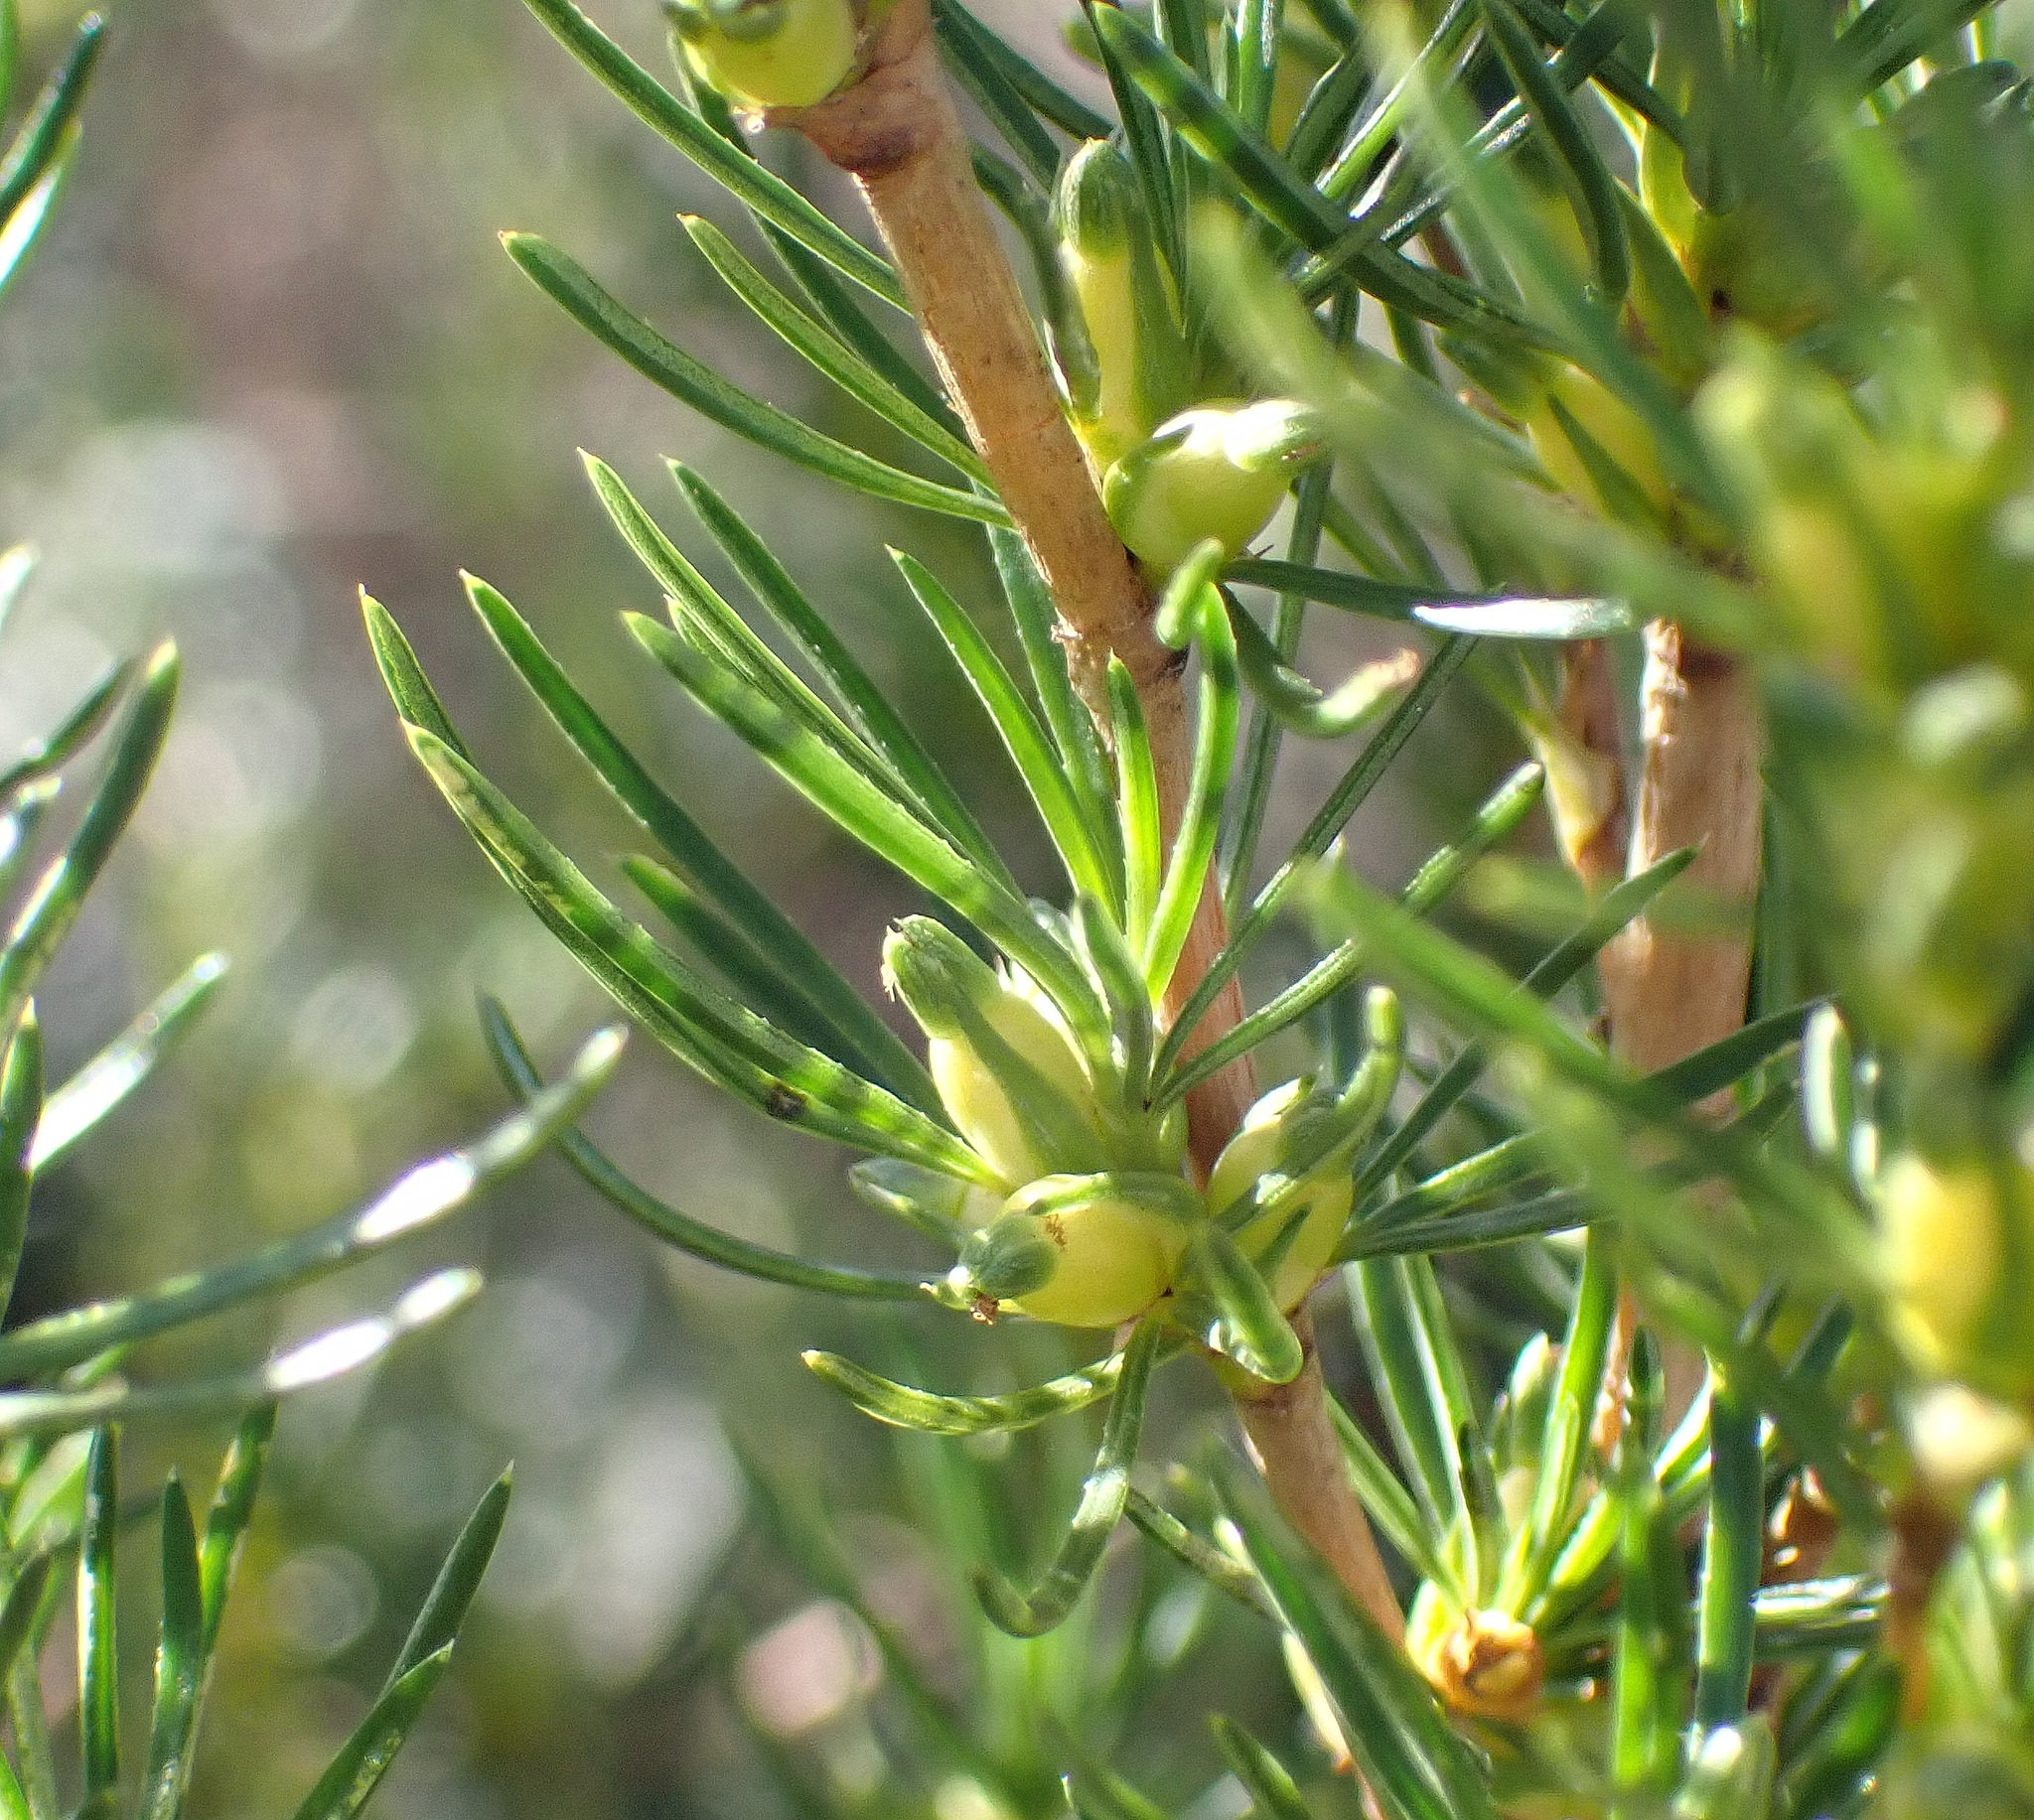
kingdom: Plantae
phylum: Tracheophyta
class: Magnoliopsida
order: Rosales
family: Rosaceae
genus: Cliffortia
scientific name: Cliffortia burchellii
